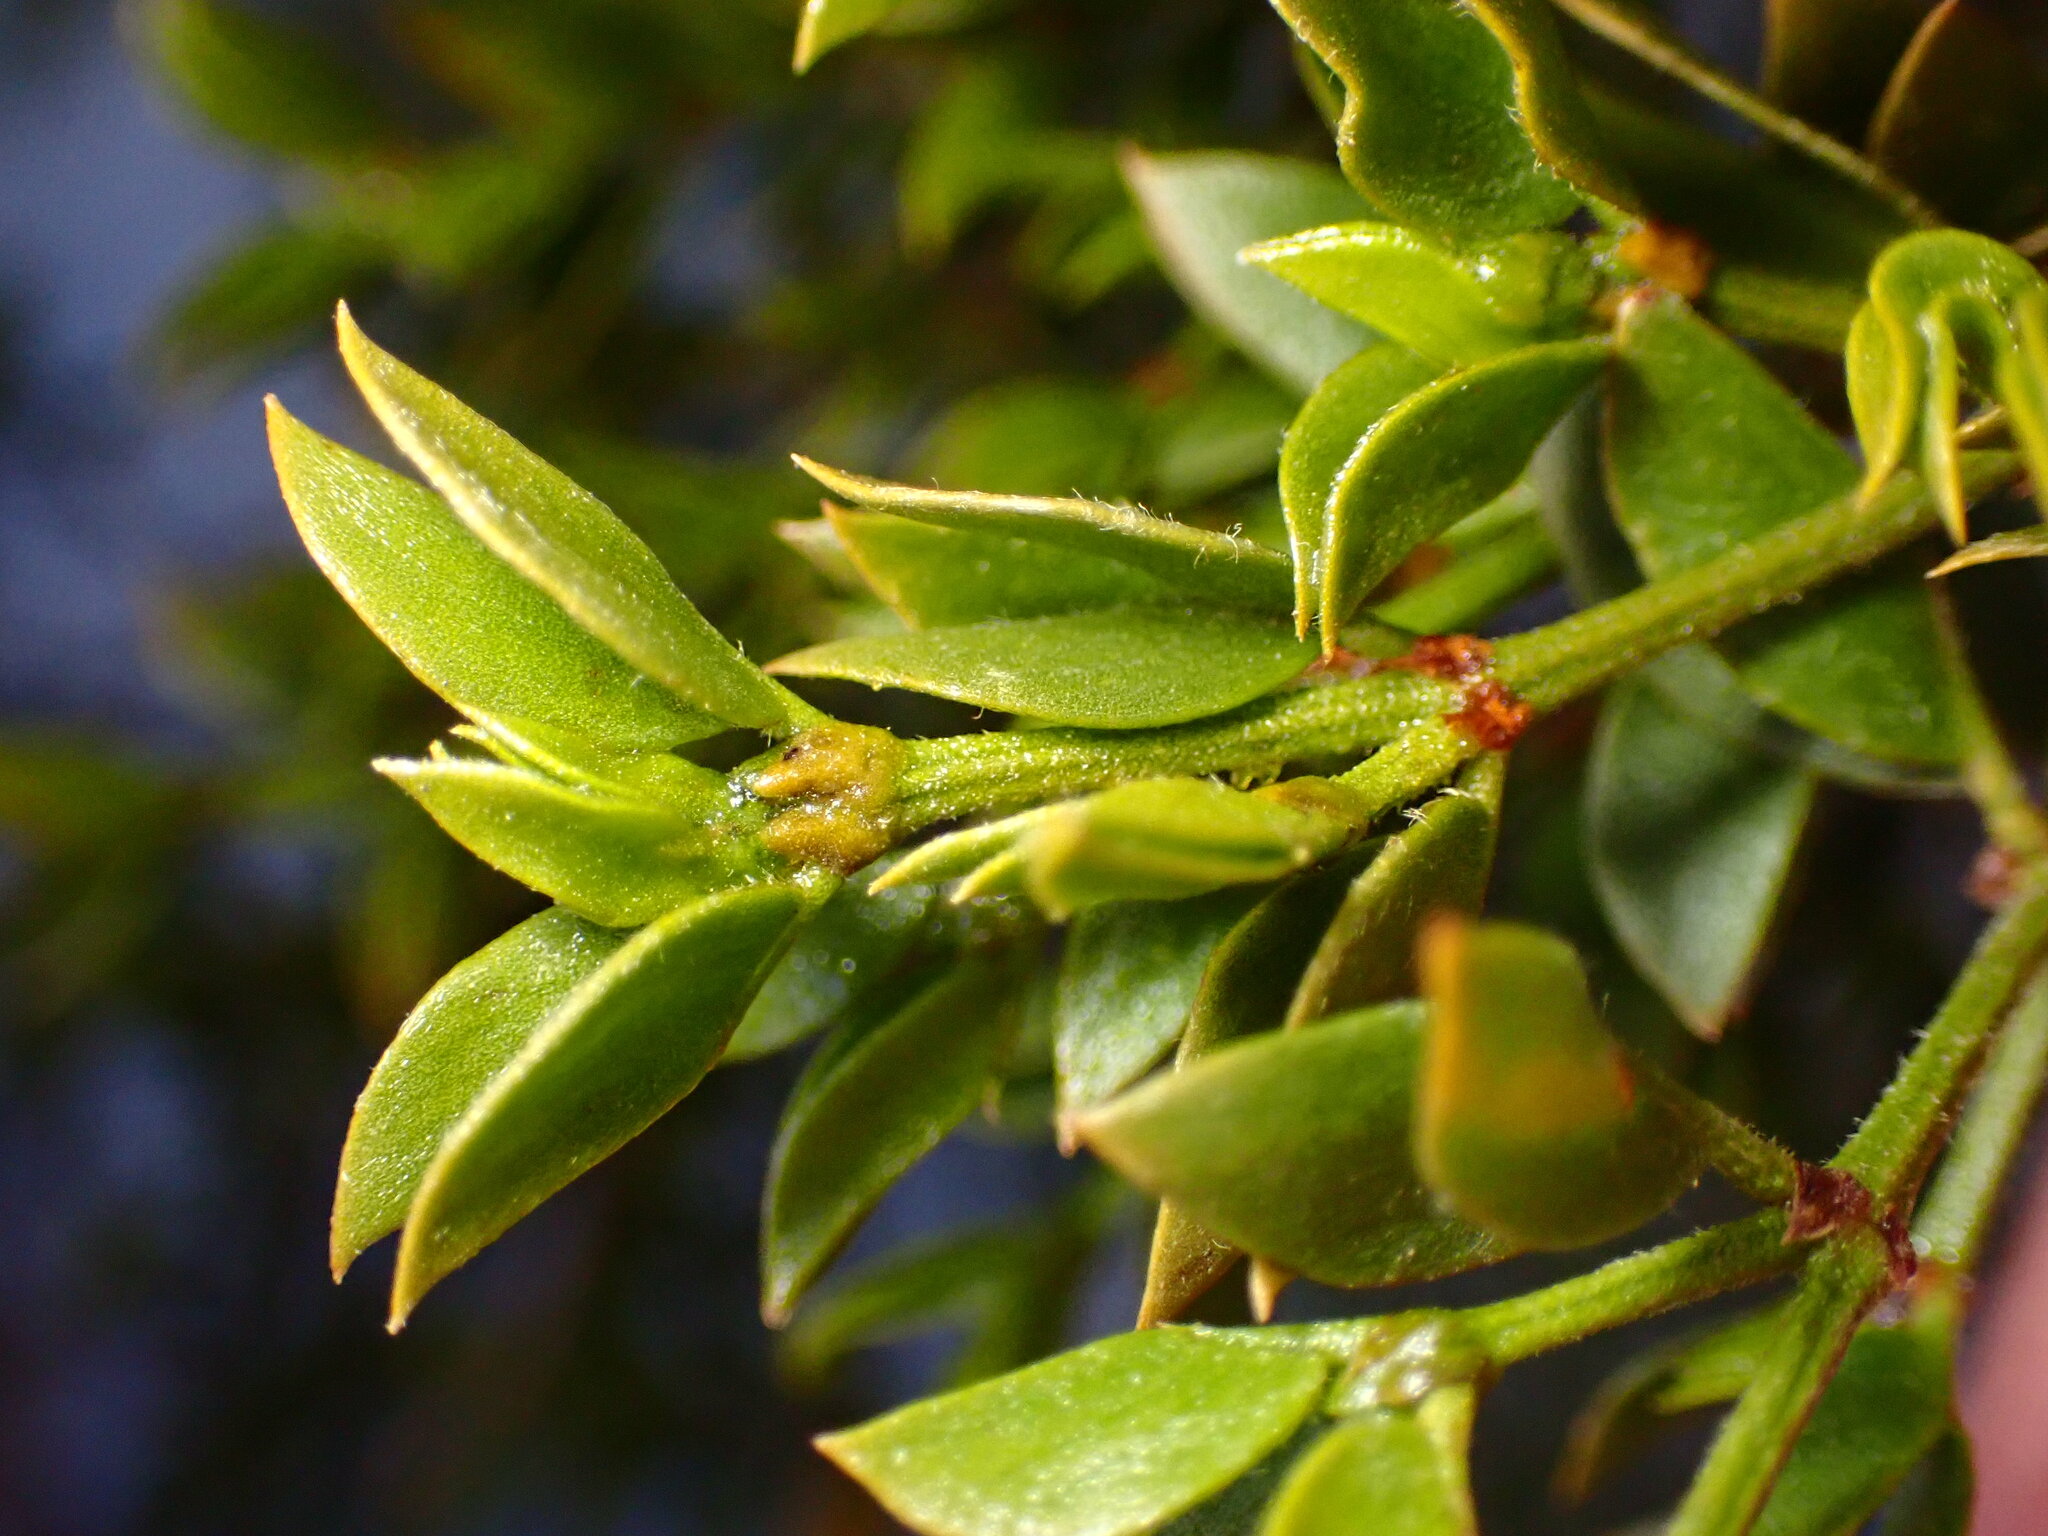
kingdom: Animalia
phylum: Arthropoda
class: Insecta
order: Diptera
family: Cecidomyiidae
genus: Asphondylia
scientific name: Asphondylia auripila
